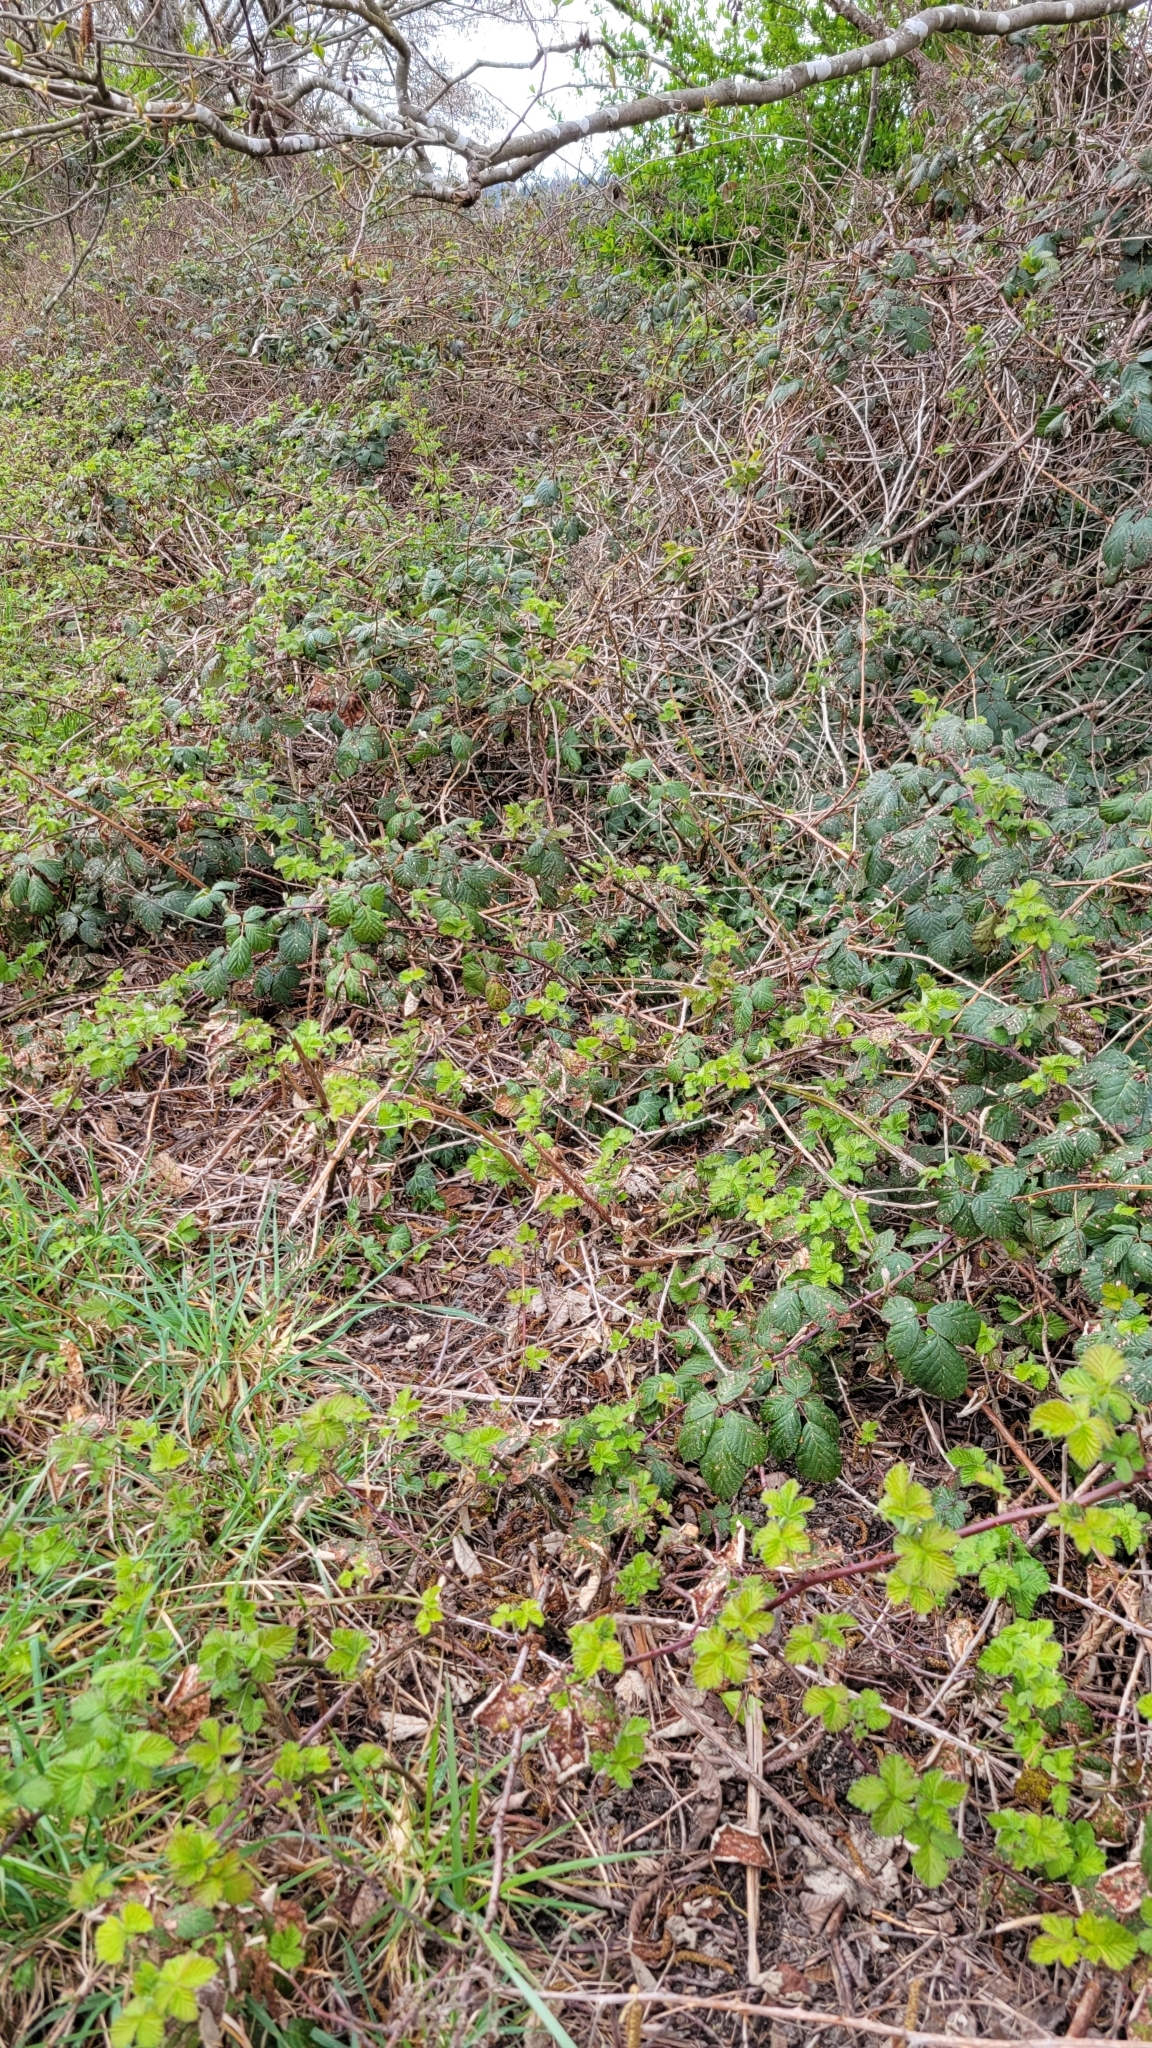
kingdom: Plantae
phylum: Tracheophyta
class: Magnoliopsida
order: Rosales
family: Rosaceae
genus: Rubus
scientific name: Rubus armeniacus
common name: Himalayan blackberry
